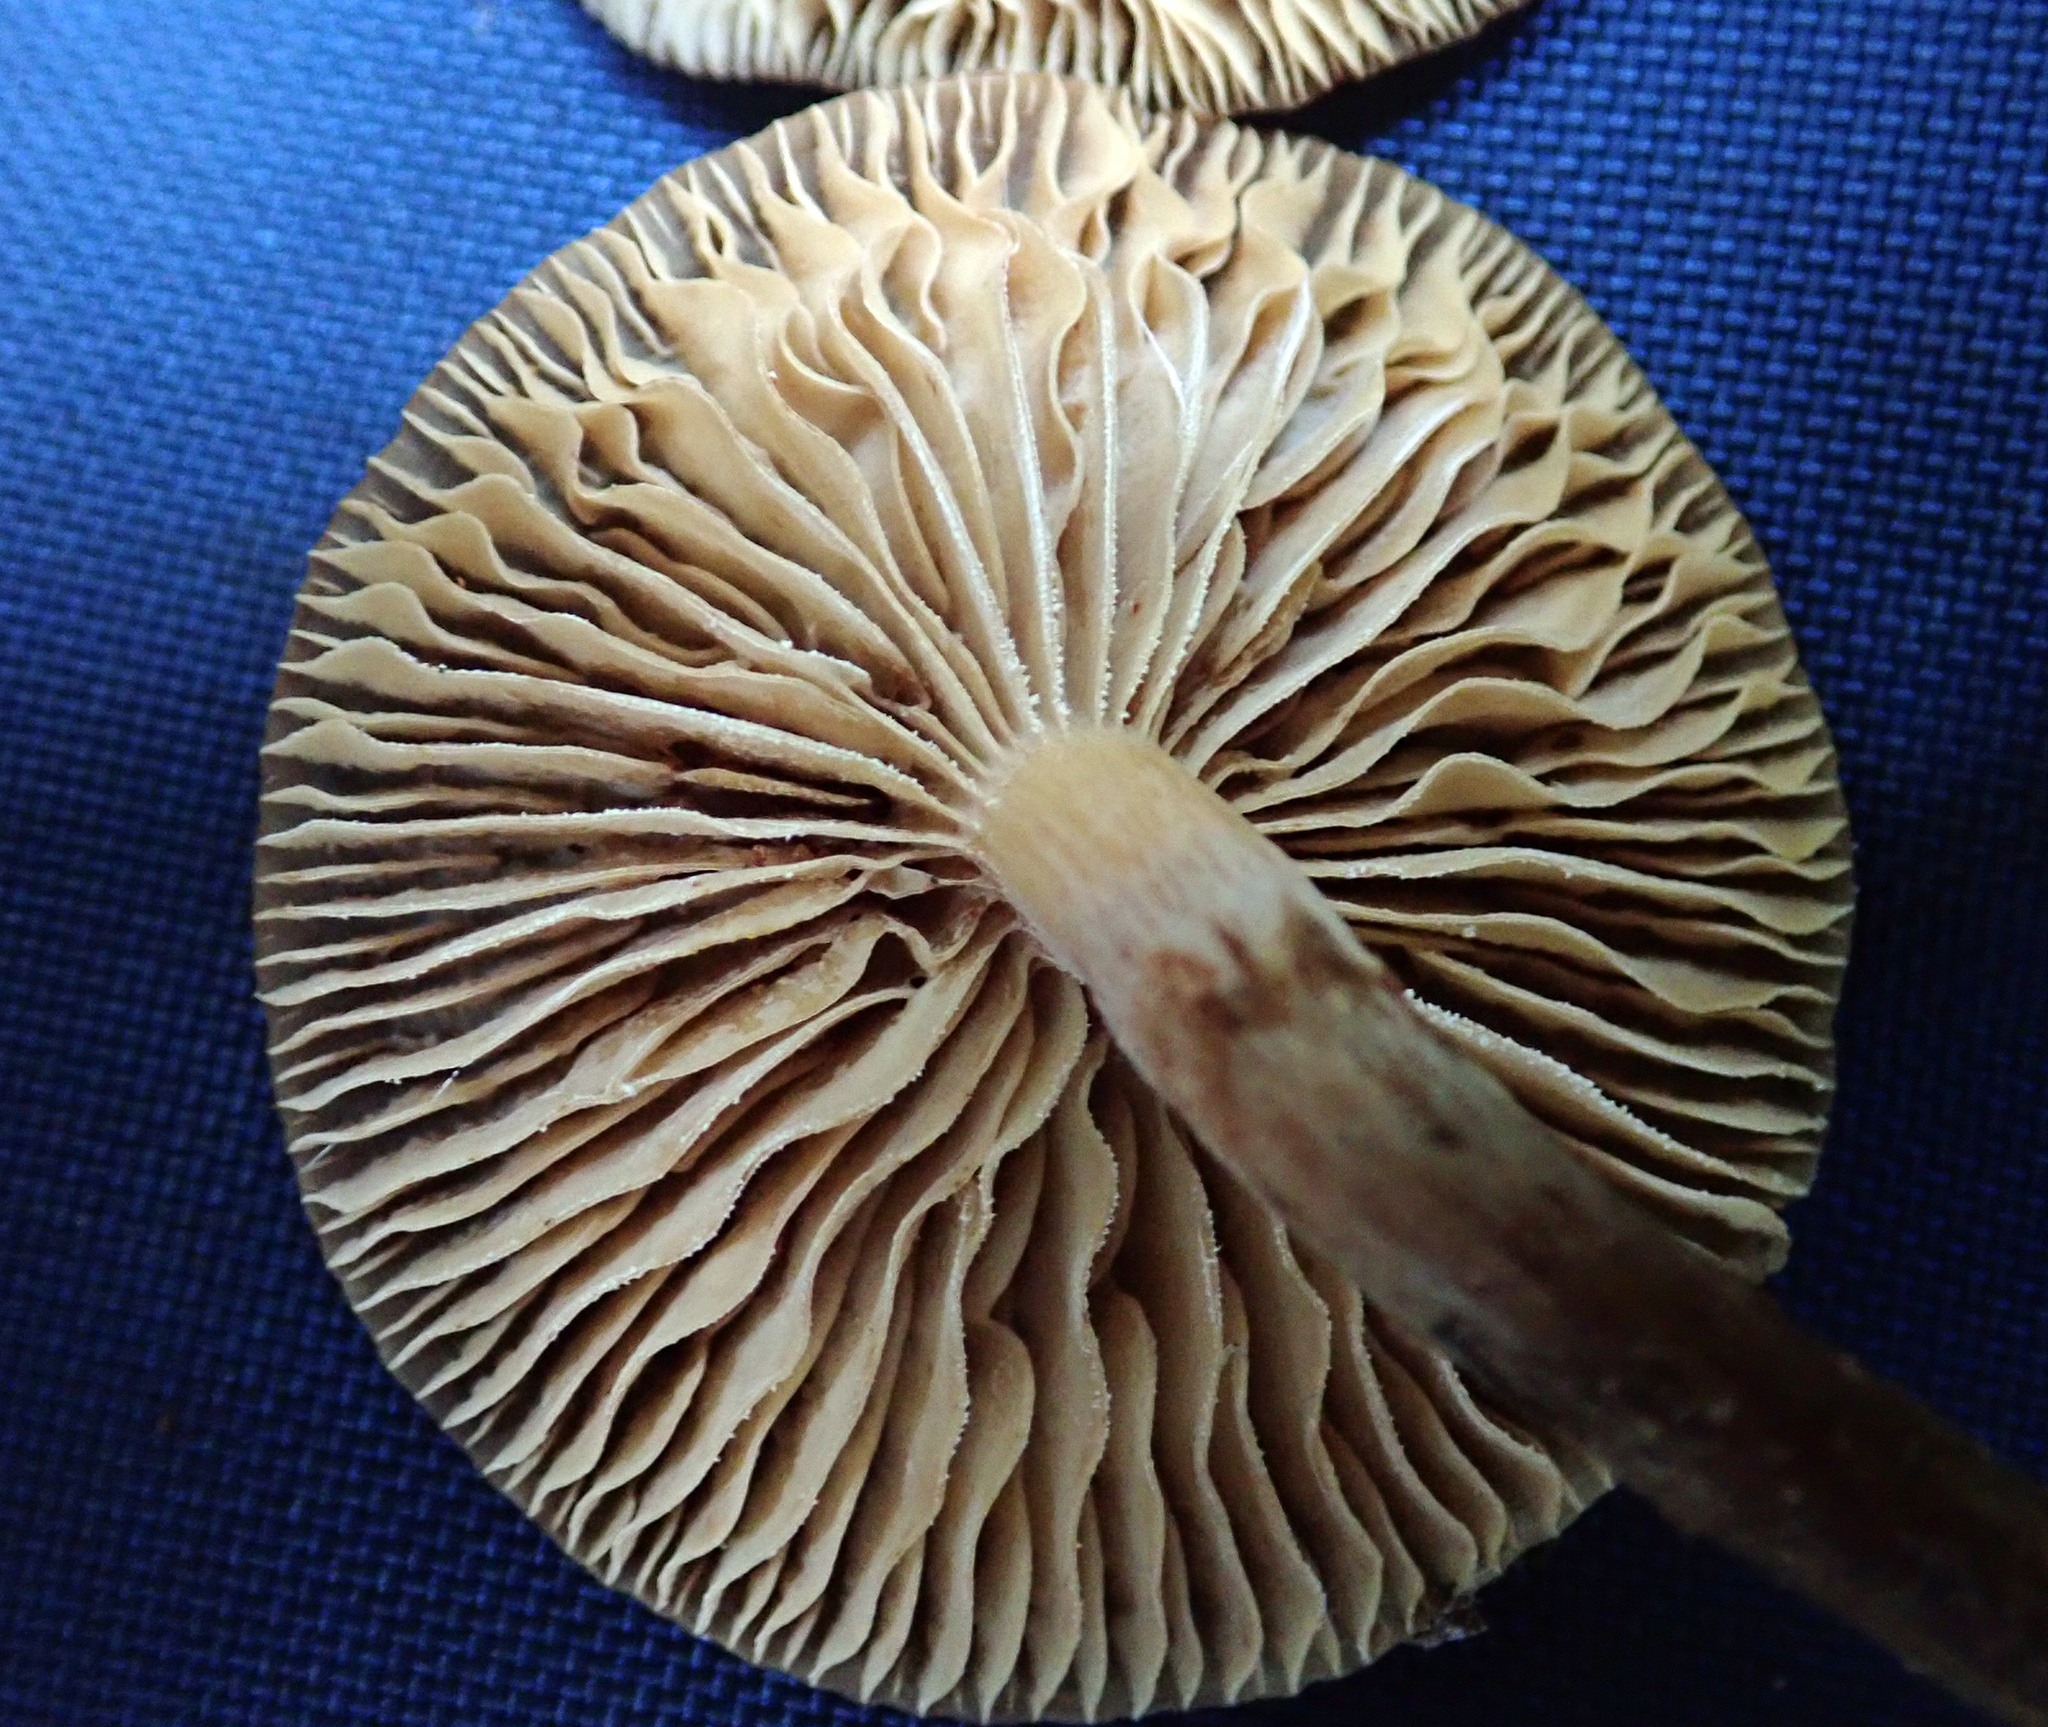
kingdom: Fungi
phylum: Basidiomycota
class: Agaricomycetes
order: Agaricales
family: Physalacriaceae
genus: Armillaria
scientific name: Armillaria novae-zelandiae
